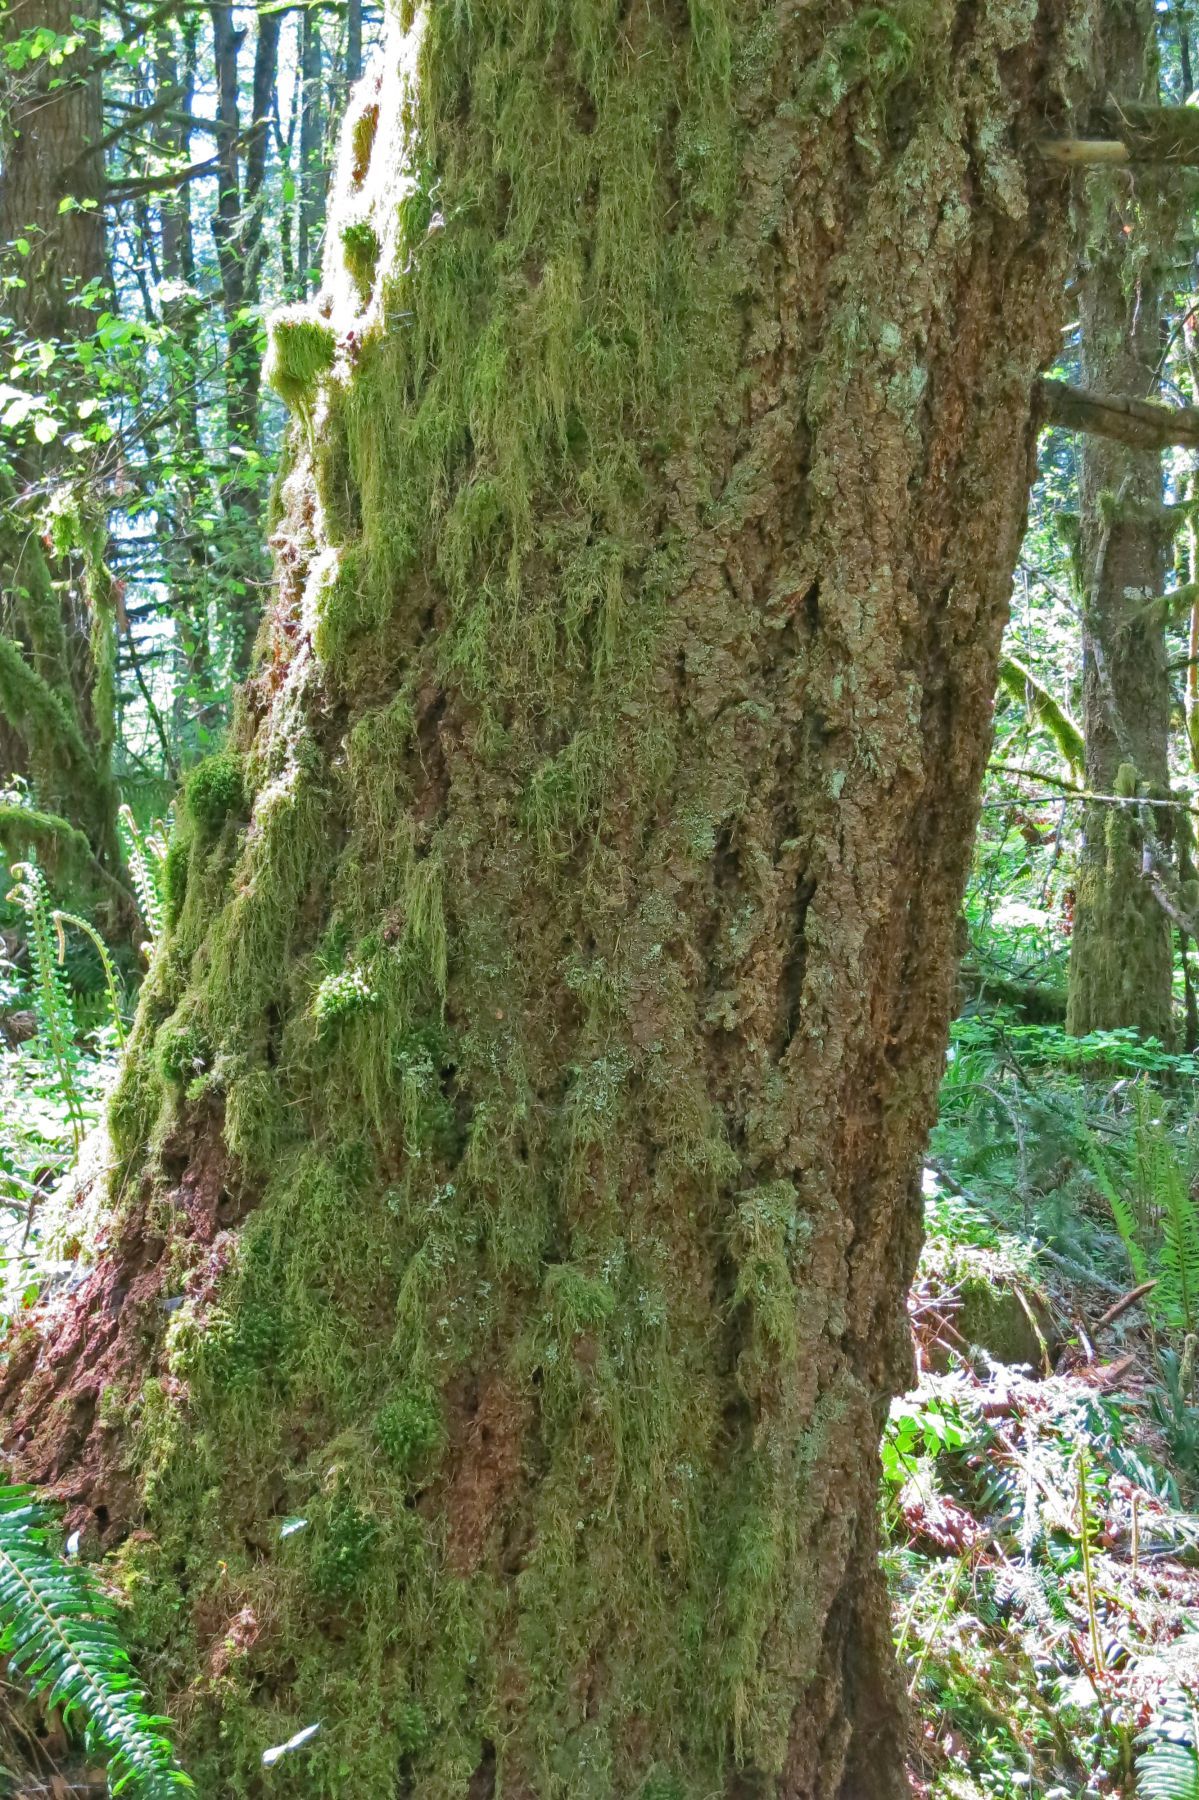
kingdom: Plantae
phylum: Tracheophyta
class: Pinopsida
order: Pinales
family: Pinaceae
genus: Pseudotsuga
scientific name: Pseudotsuga menziesii
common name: Douglas fir
